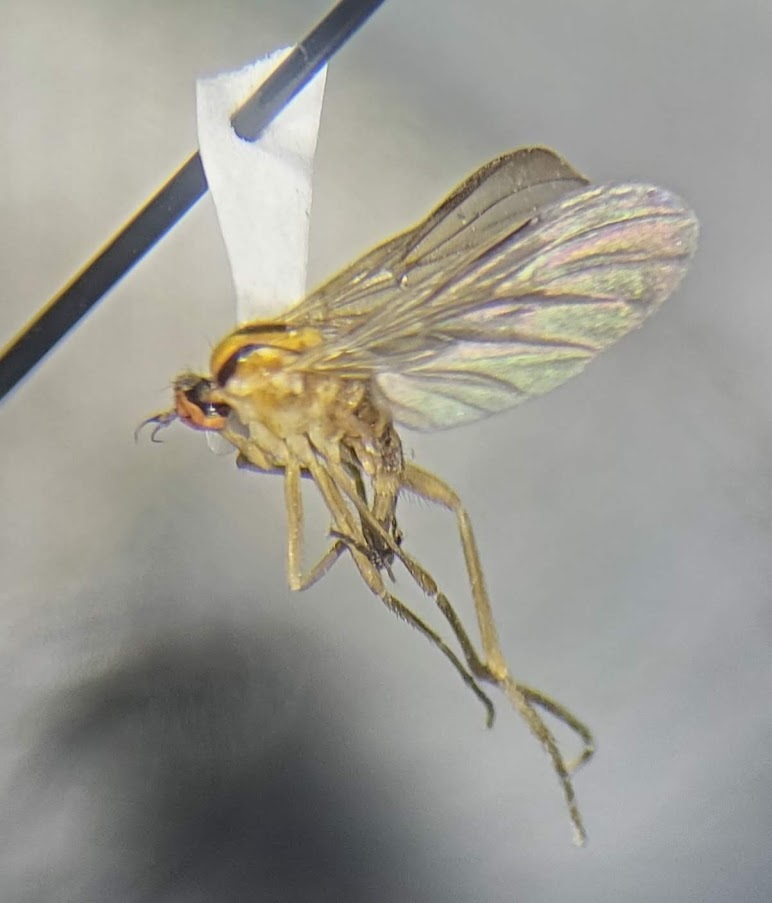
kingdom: Animalia
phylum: Arthropoda
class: Insecta
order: Diptera
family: Empididae
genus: Rhamphomyia
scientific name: Rhamphomyia vittata
